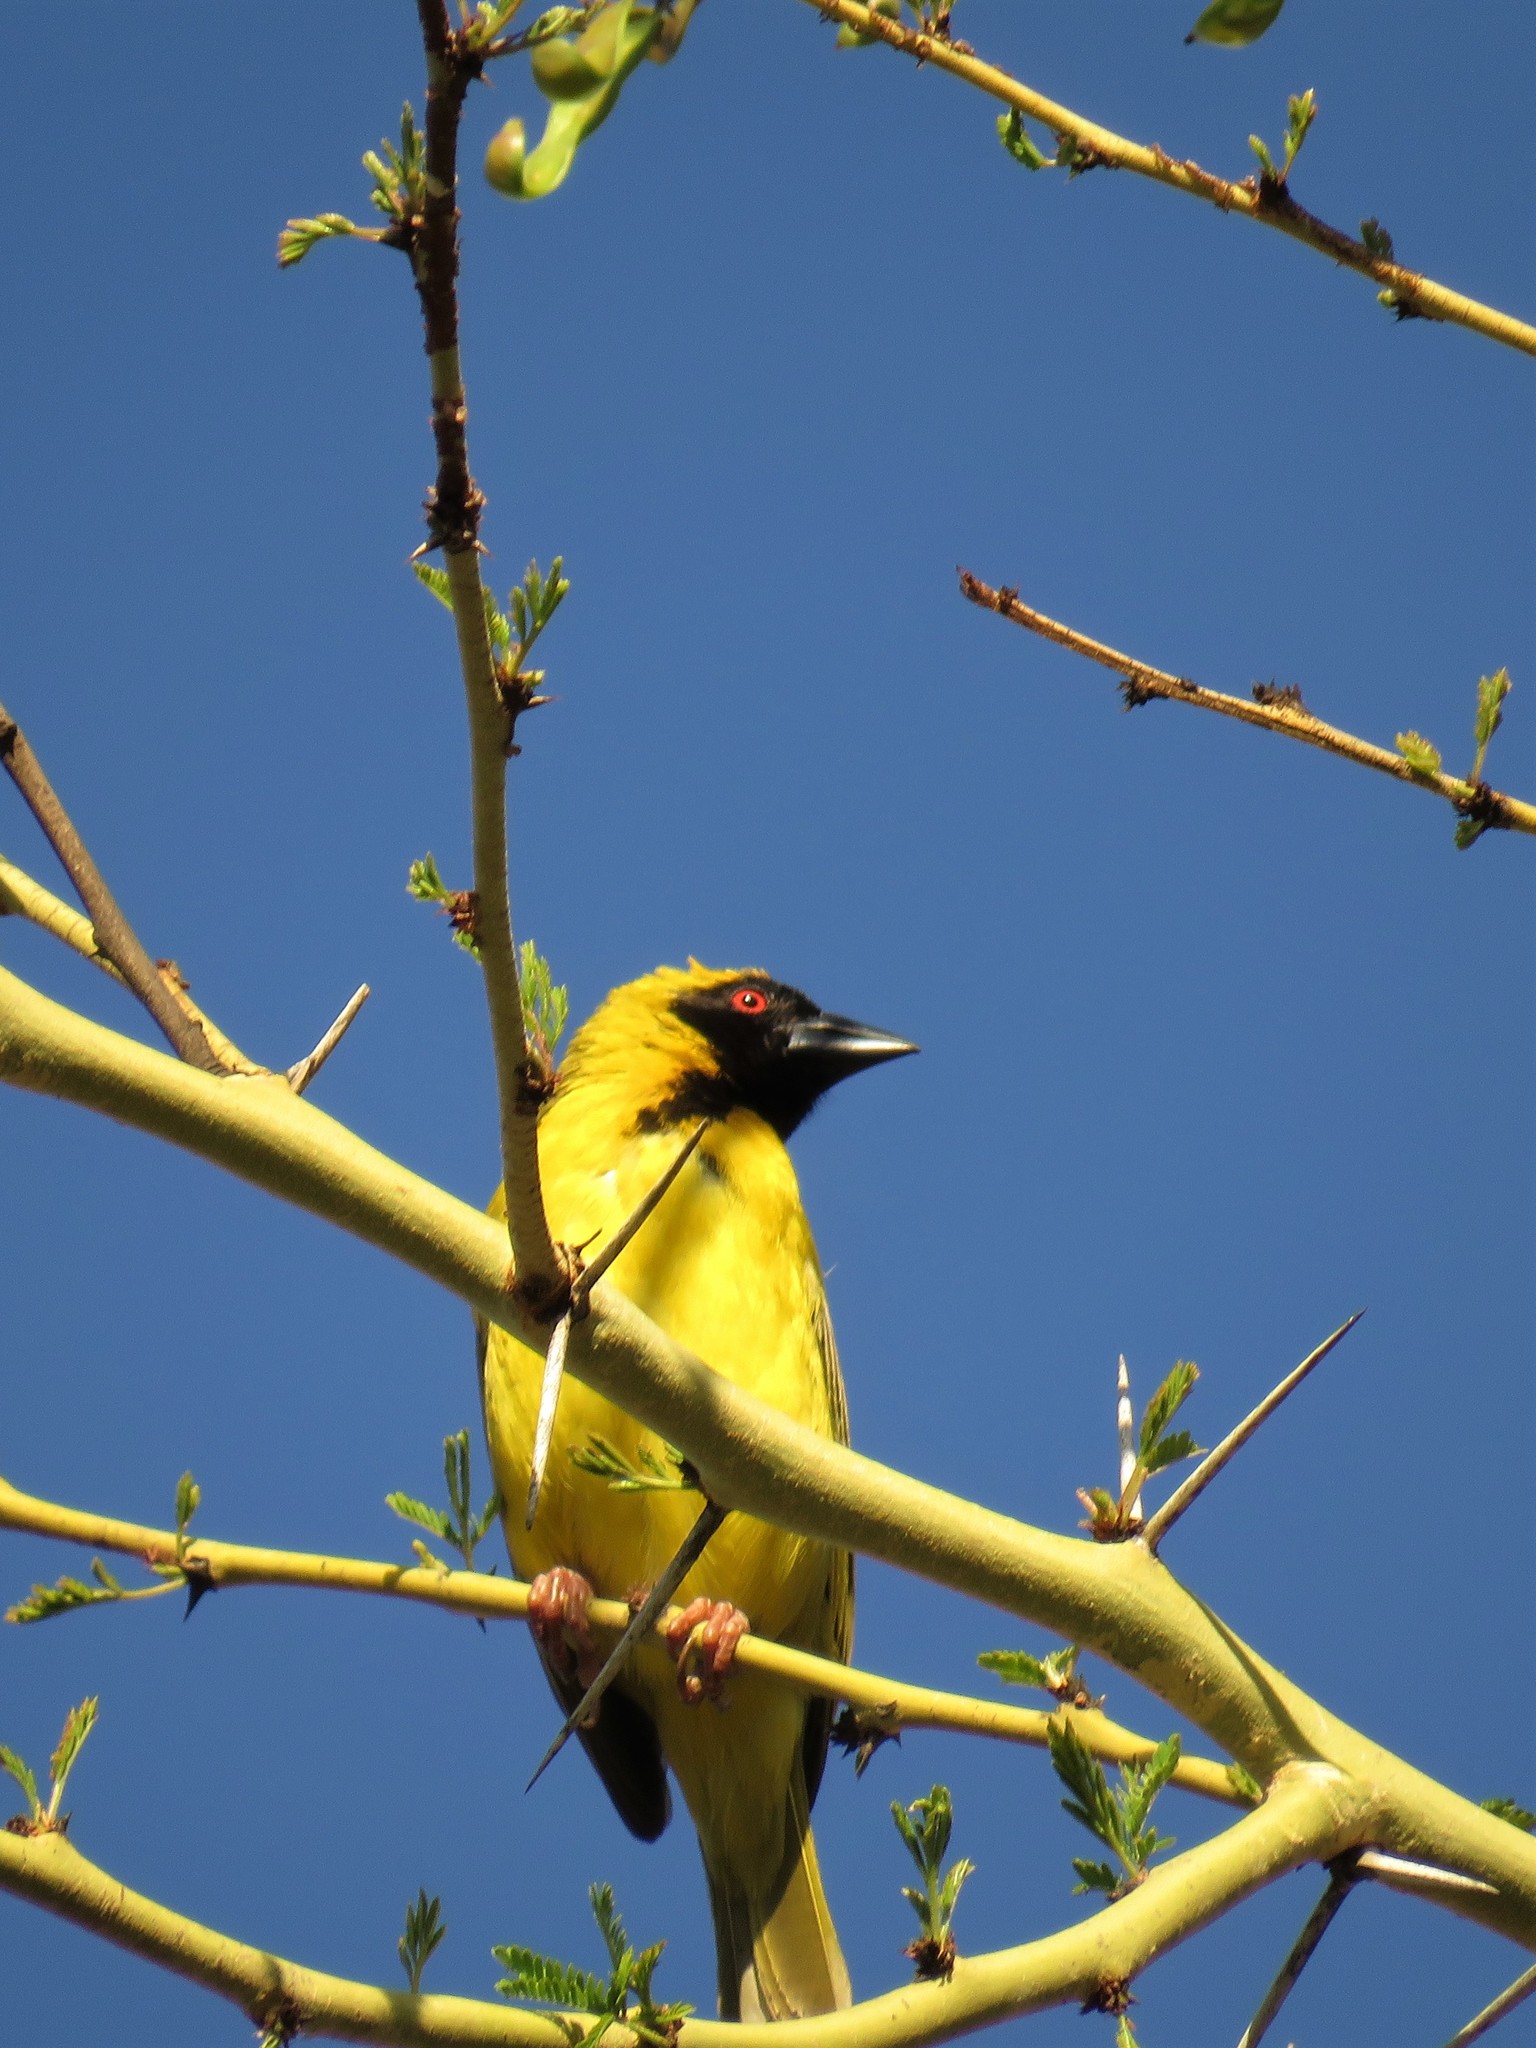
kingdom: Animalia
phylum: Chordata
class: Aves
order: Passeriformes
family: Ploceidae
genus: Ploceus
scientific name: Ploceus velatus
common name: Southern masked weaver
